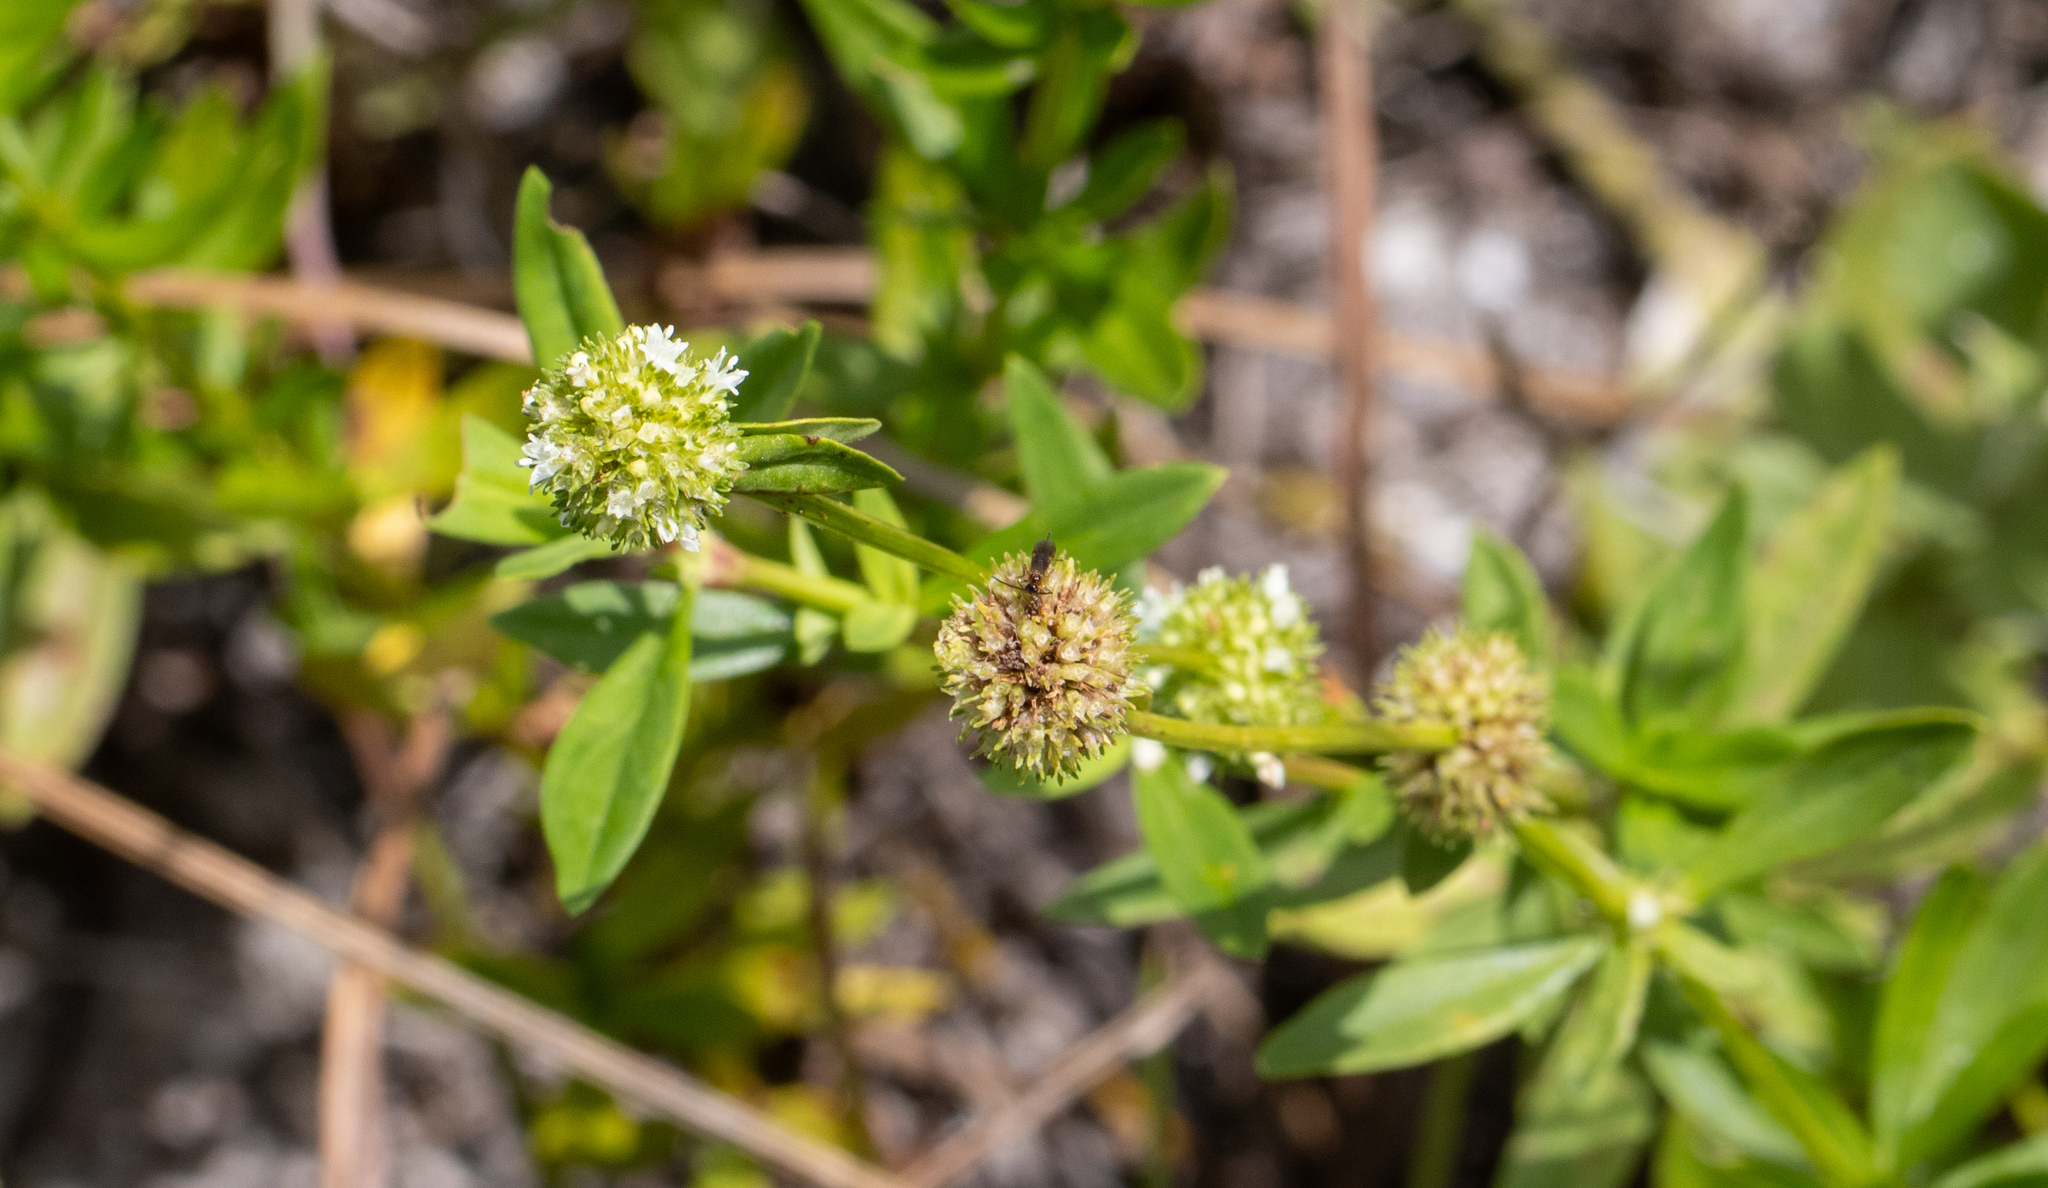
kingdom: Plantae
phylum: Tracheophyta
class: Magnoliopsida
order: Gentianales
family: Rubiaceae
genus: Spermacoce
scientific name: Spermacoce verticillata
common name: Shrubby false buttonweed
